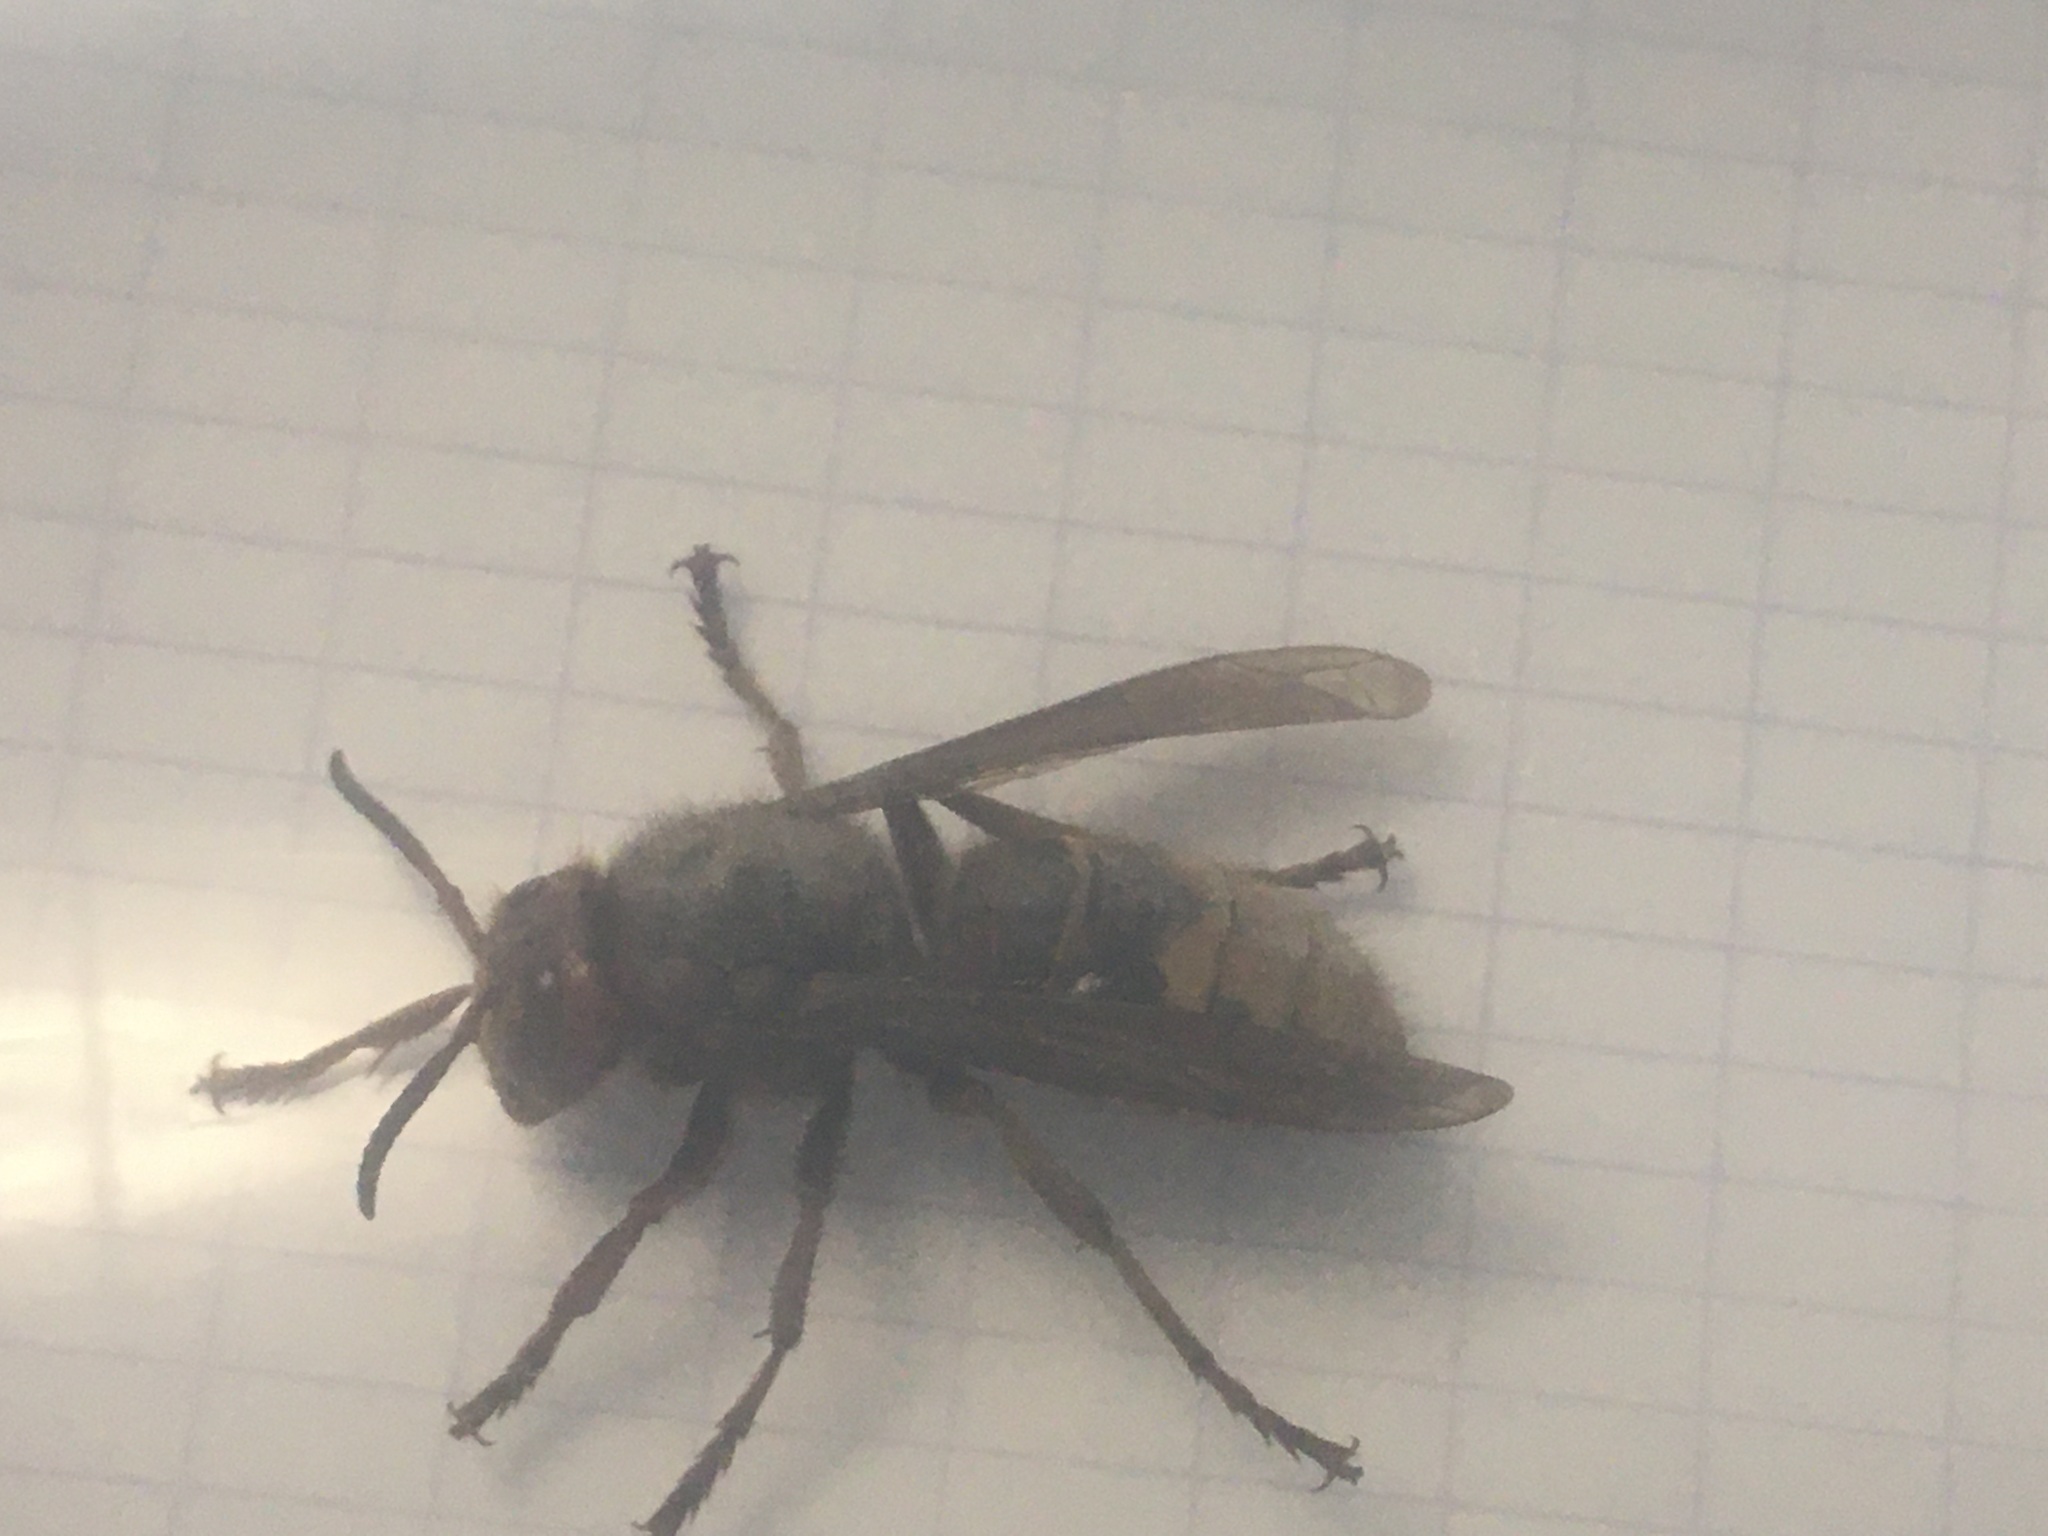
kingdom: Animalia
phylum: Arthropoda
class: Insecta
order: Hymenoptera
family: Vespidae
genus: Vespa
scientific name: Vespa crabro
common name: Hornet
